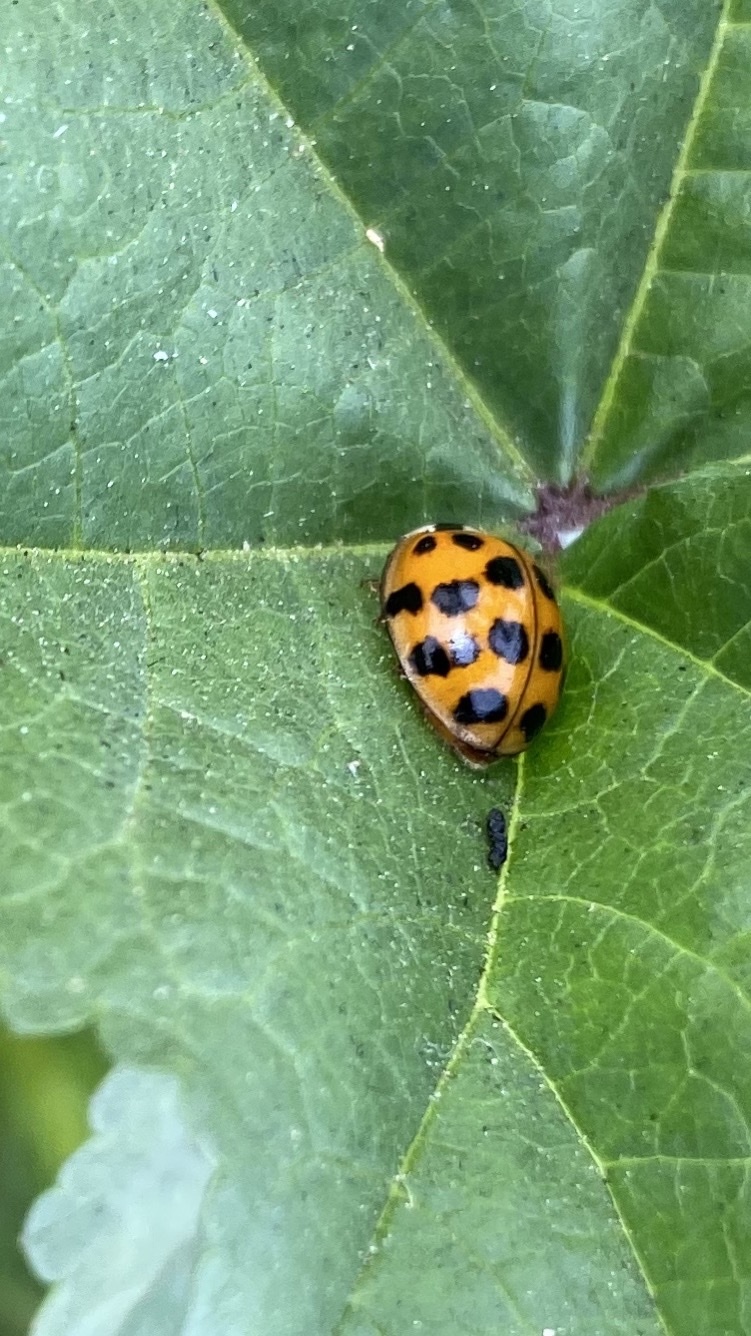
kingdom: Animalia
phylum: Arthropoda
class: Insecta
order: Coleoptera
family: Coccinellidae
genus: Harmonia
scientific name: Harmonia axyridis
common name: Harlequin ladybird
